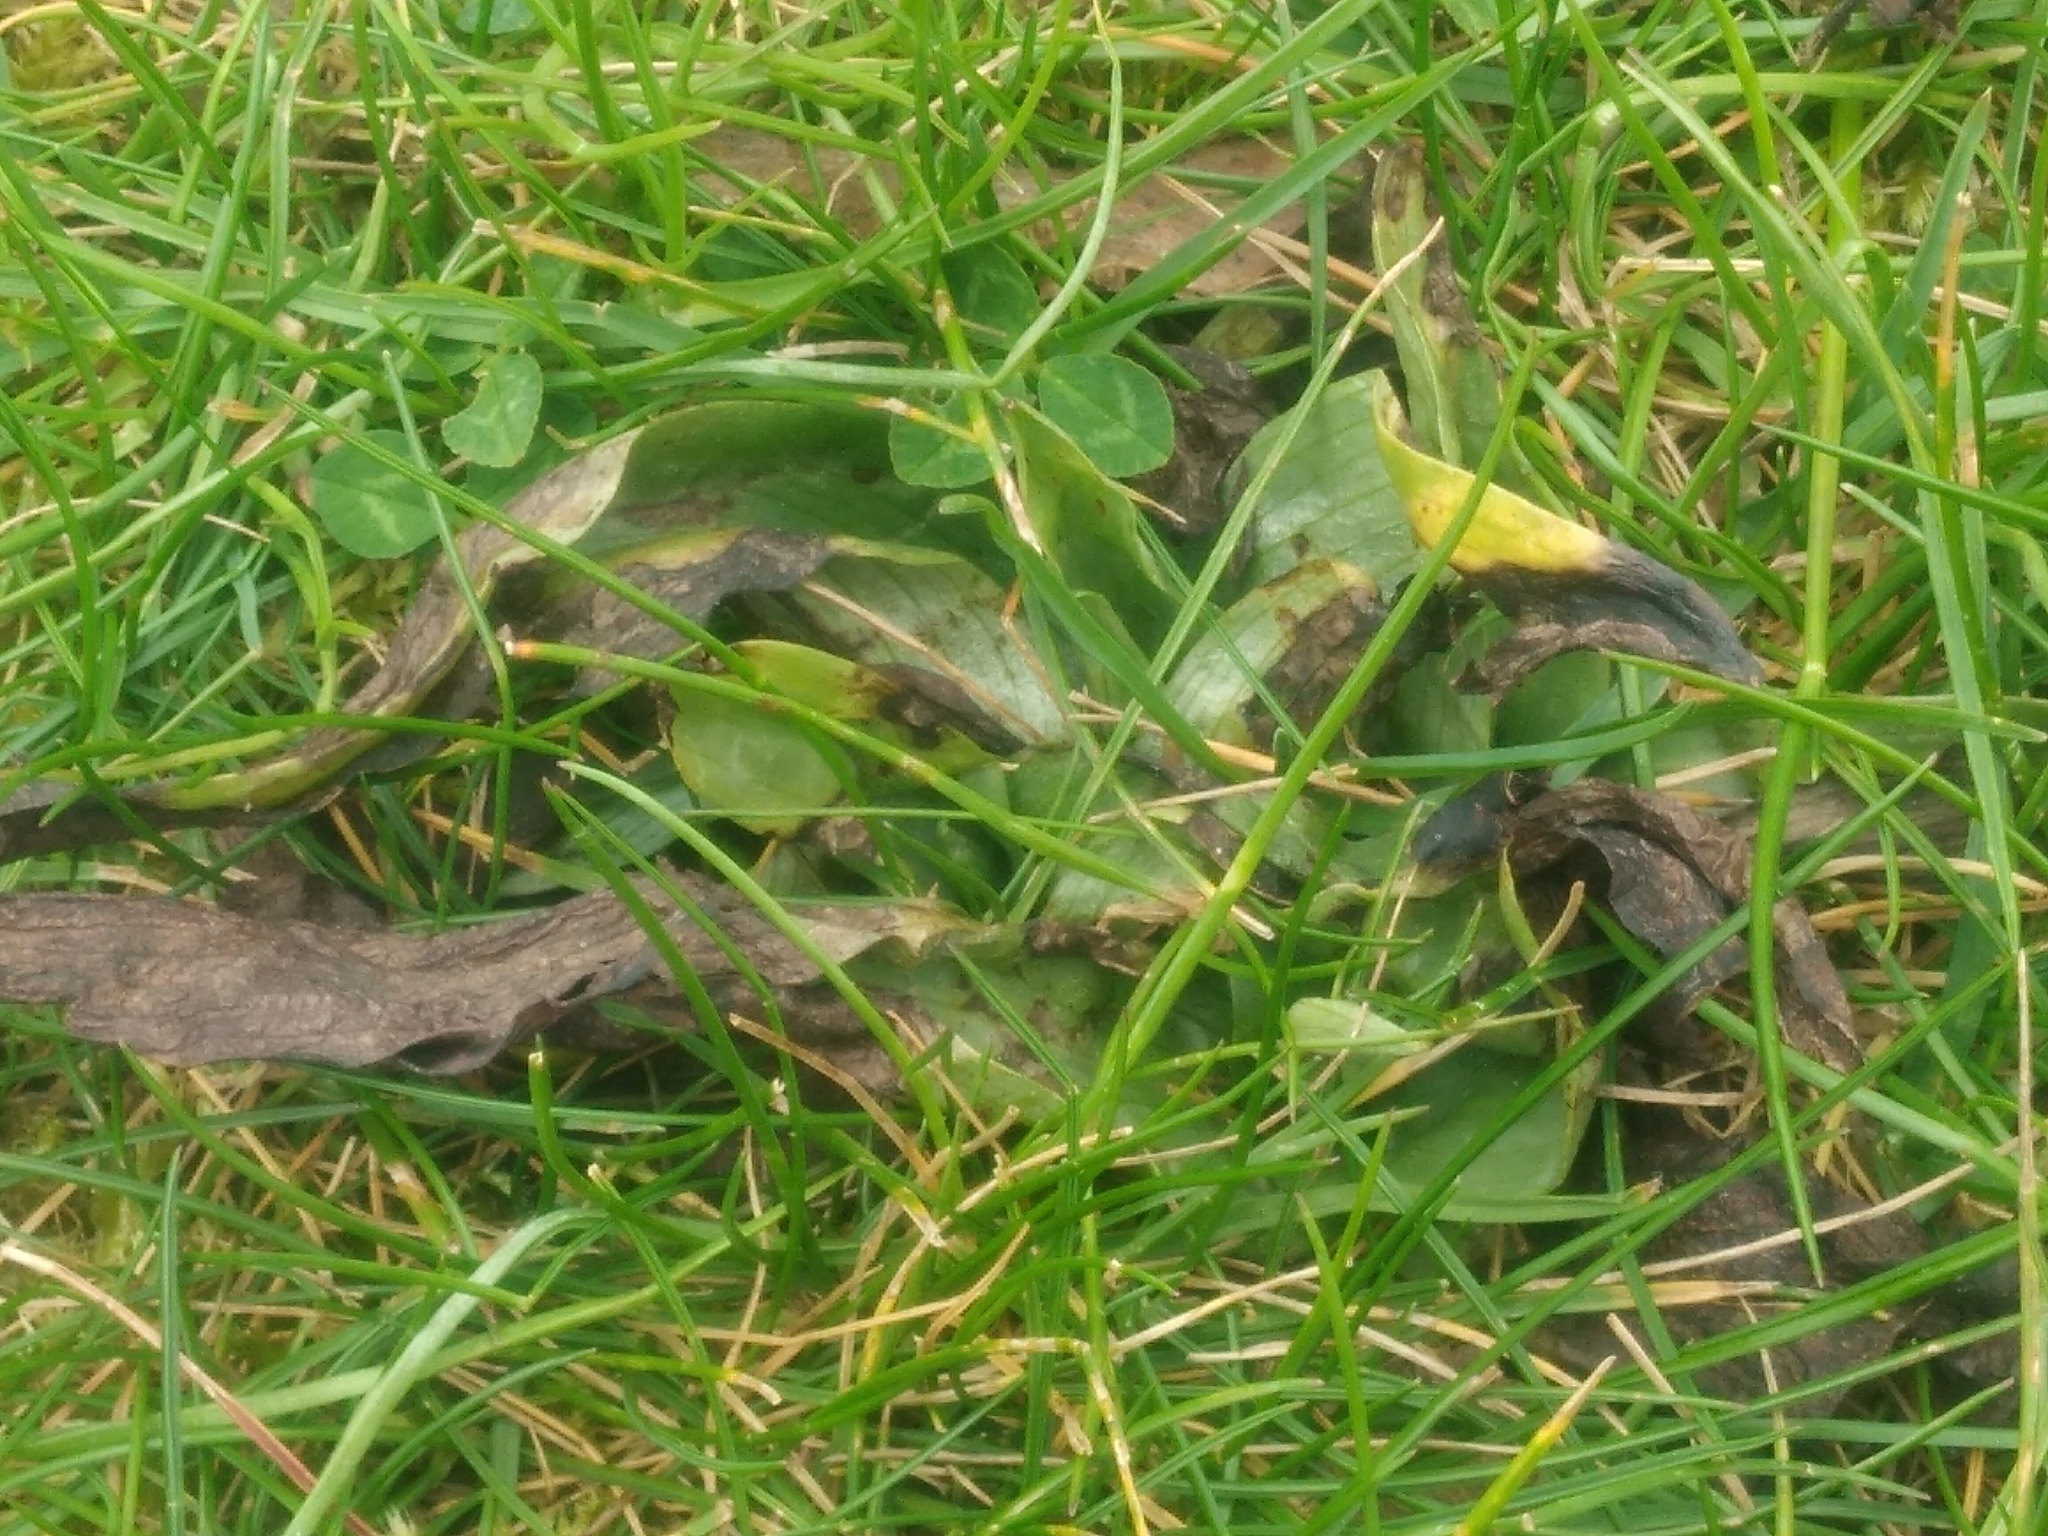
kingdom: Plantae
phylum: Tracheophyta
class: Liliopsida
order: Asparagales
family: Orchidaceae
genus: Ophrys
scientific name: Ophrys apifera
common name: Bee orchid
